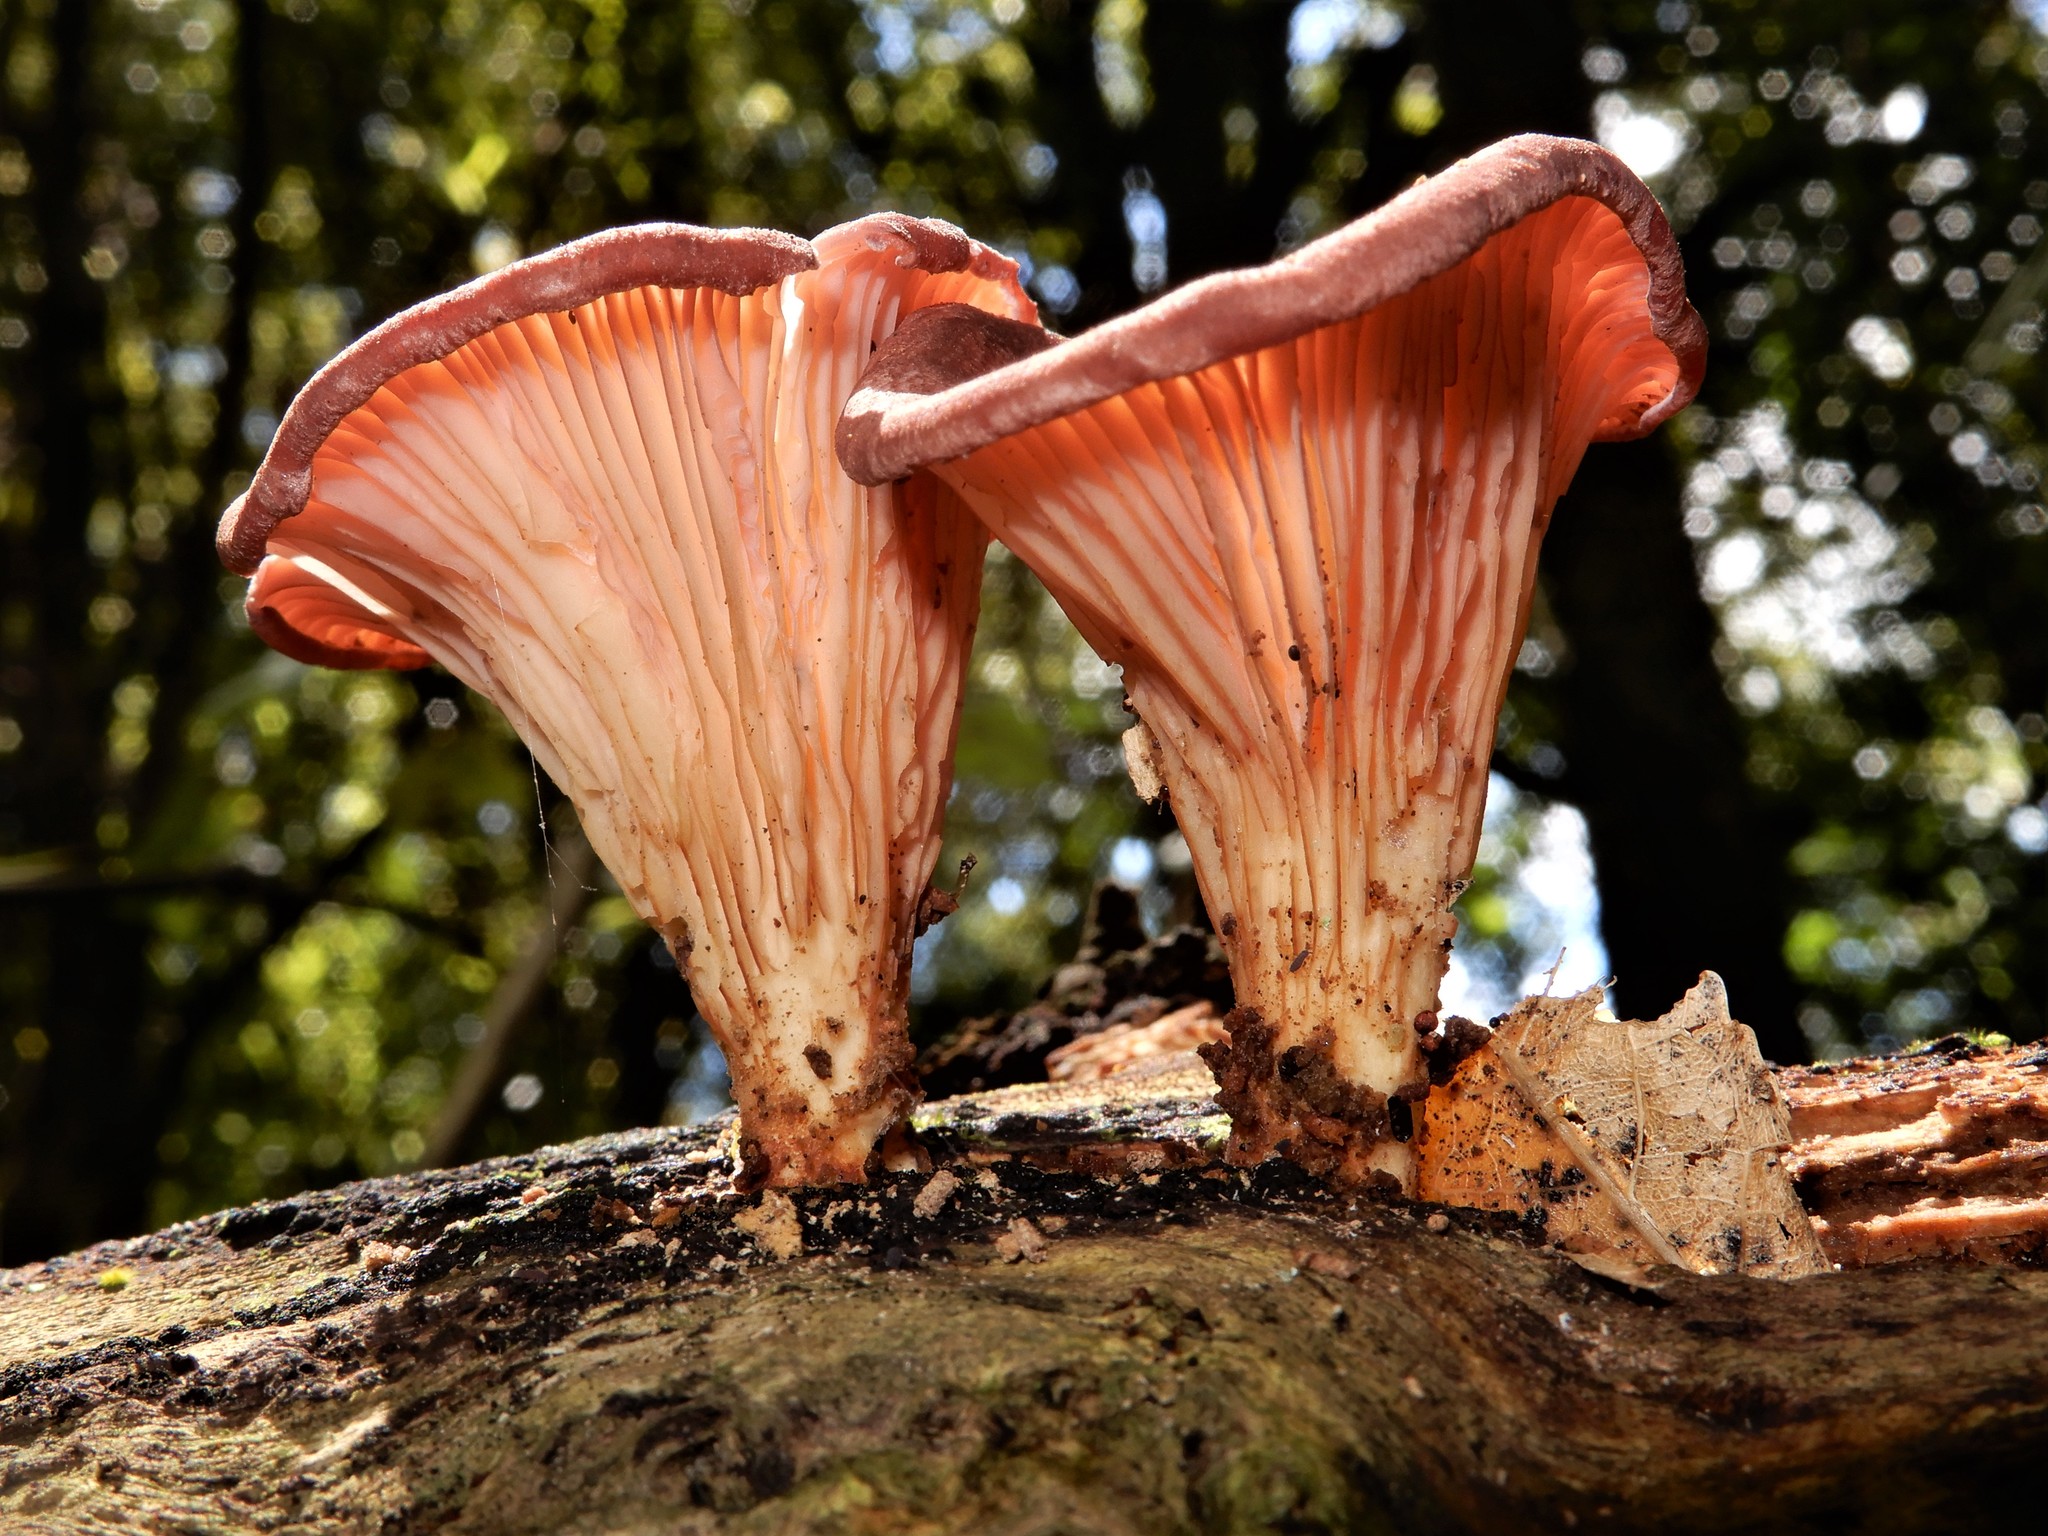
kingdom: Fungi
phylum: Basidiomycota
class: Agaricomycetes
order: Polyporales
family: Panaceae
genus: Panus
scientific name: Panus
